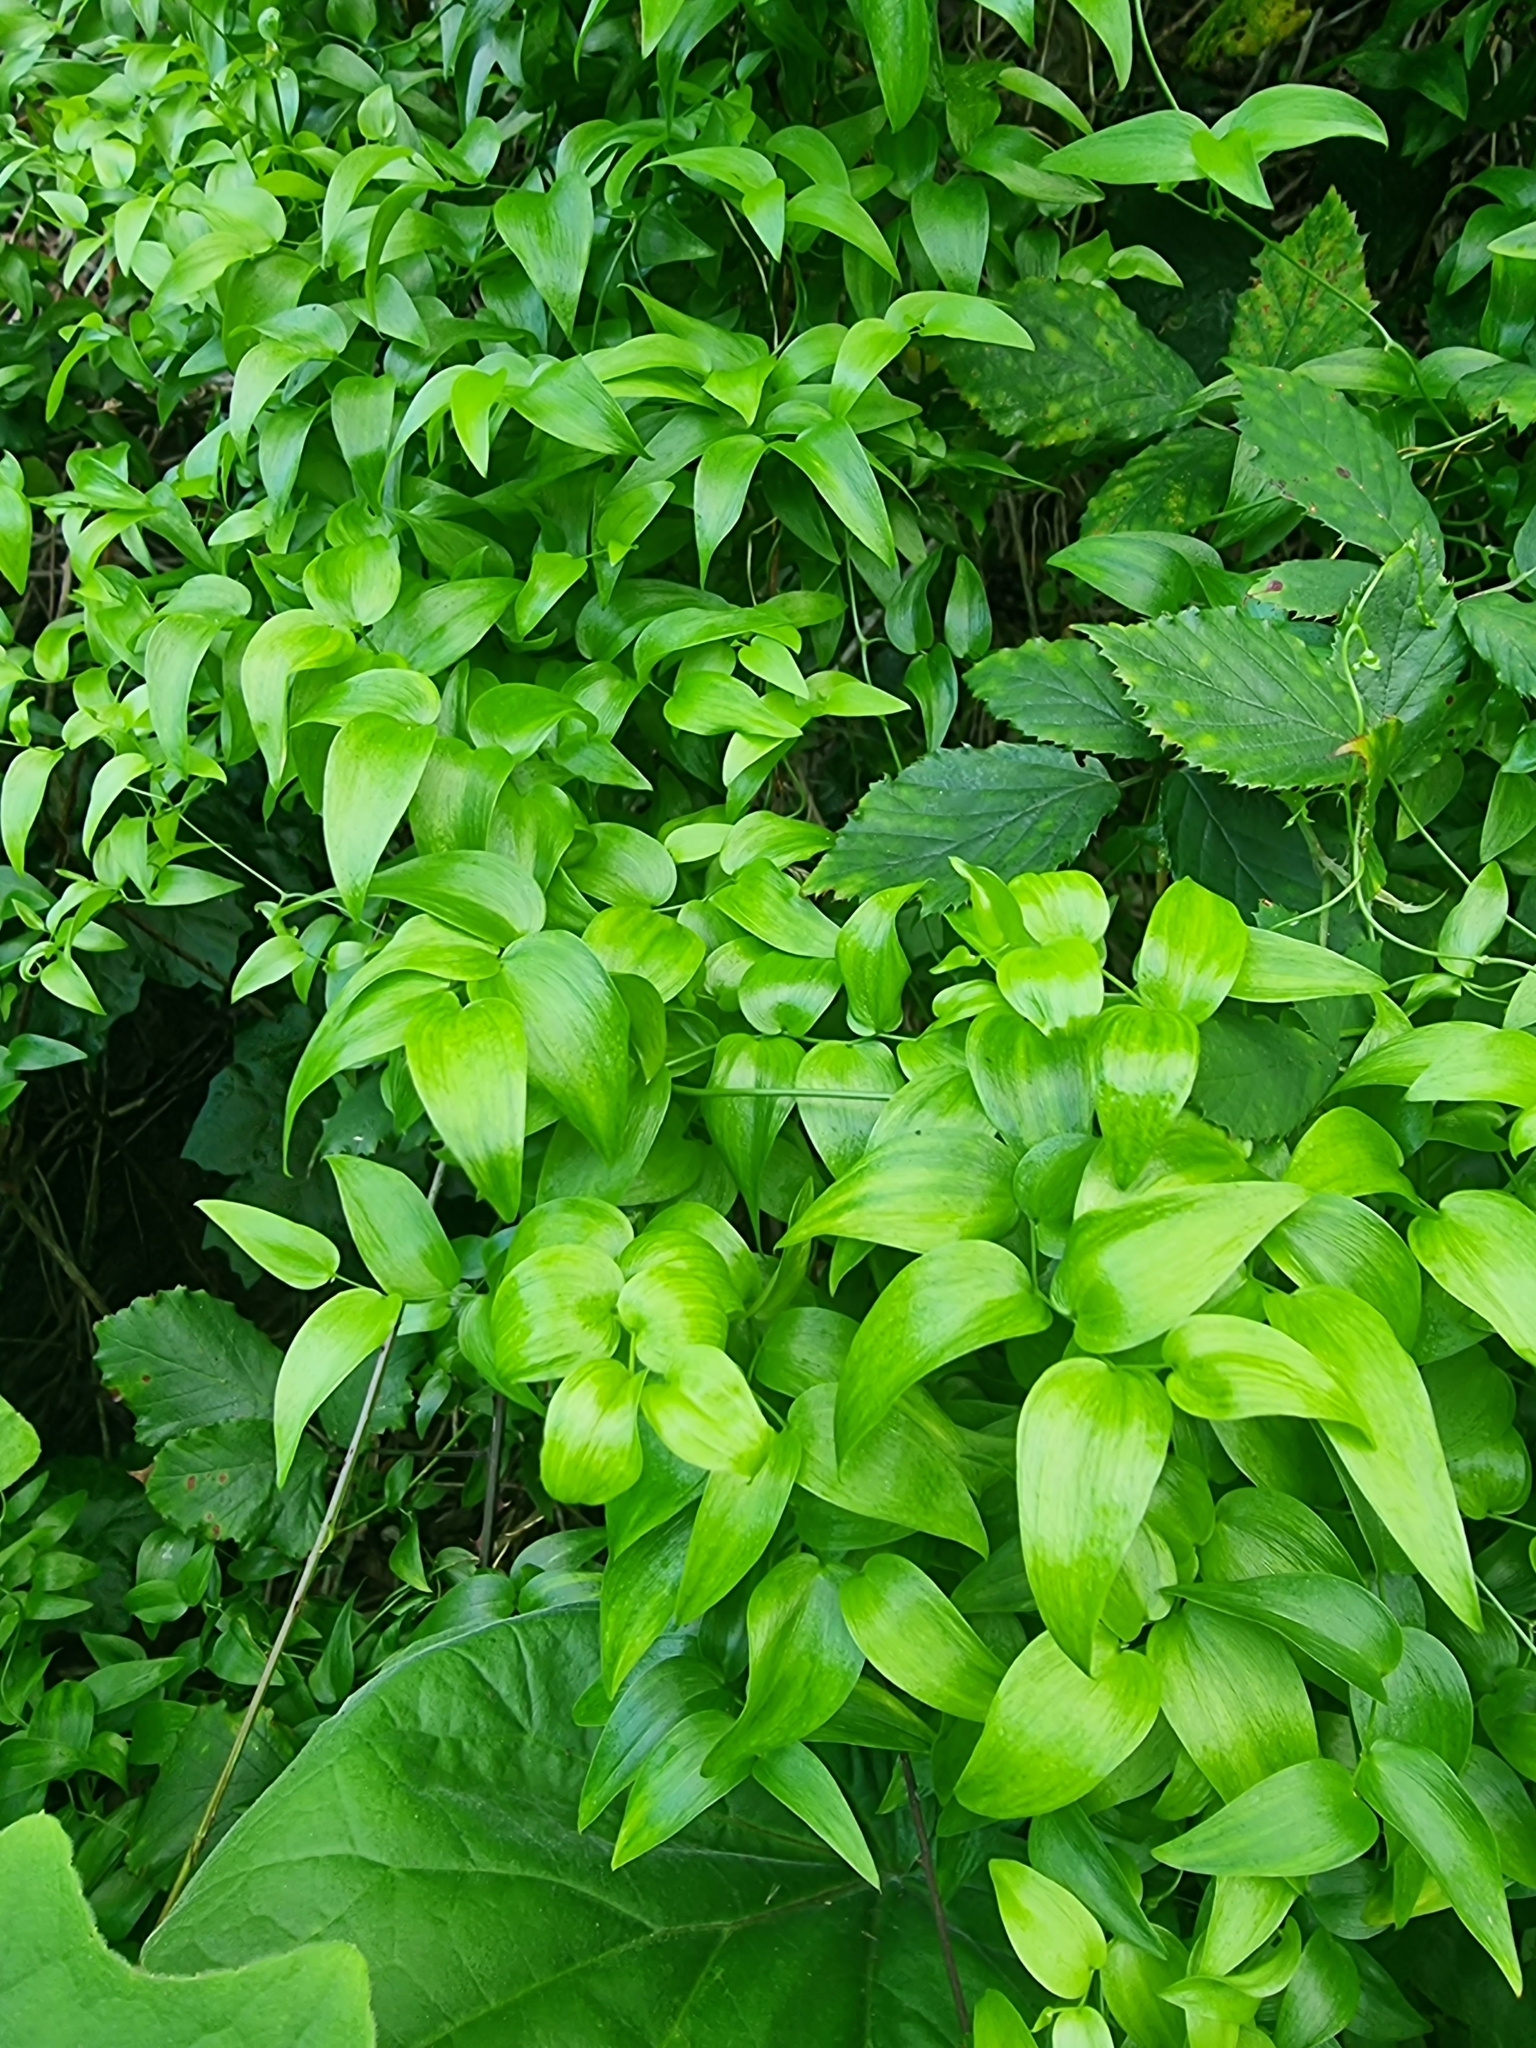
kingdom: Plantae
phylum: Tracheophyta
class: Liliopsida
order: Asparagales
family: Asparagaceae
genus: Asparagus
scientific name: Asparagus asparagoides
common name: African asparagus fern
